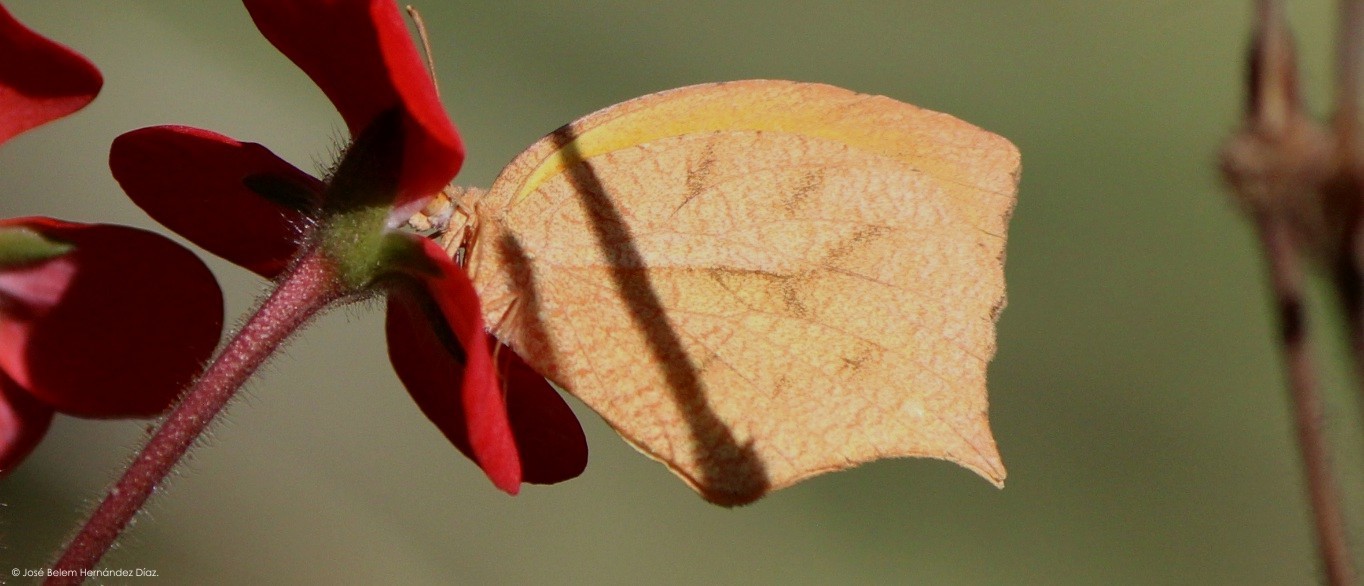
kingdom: Animalia
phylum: Arthropoda
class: Insecta
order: Lepidoptera
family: Pieridae
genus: Pyrisitia
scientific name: Pyrisitia proterpia
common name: Tailed orange
